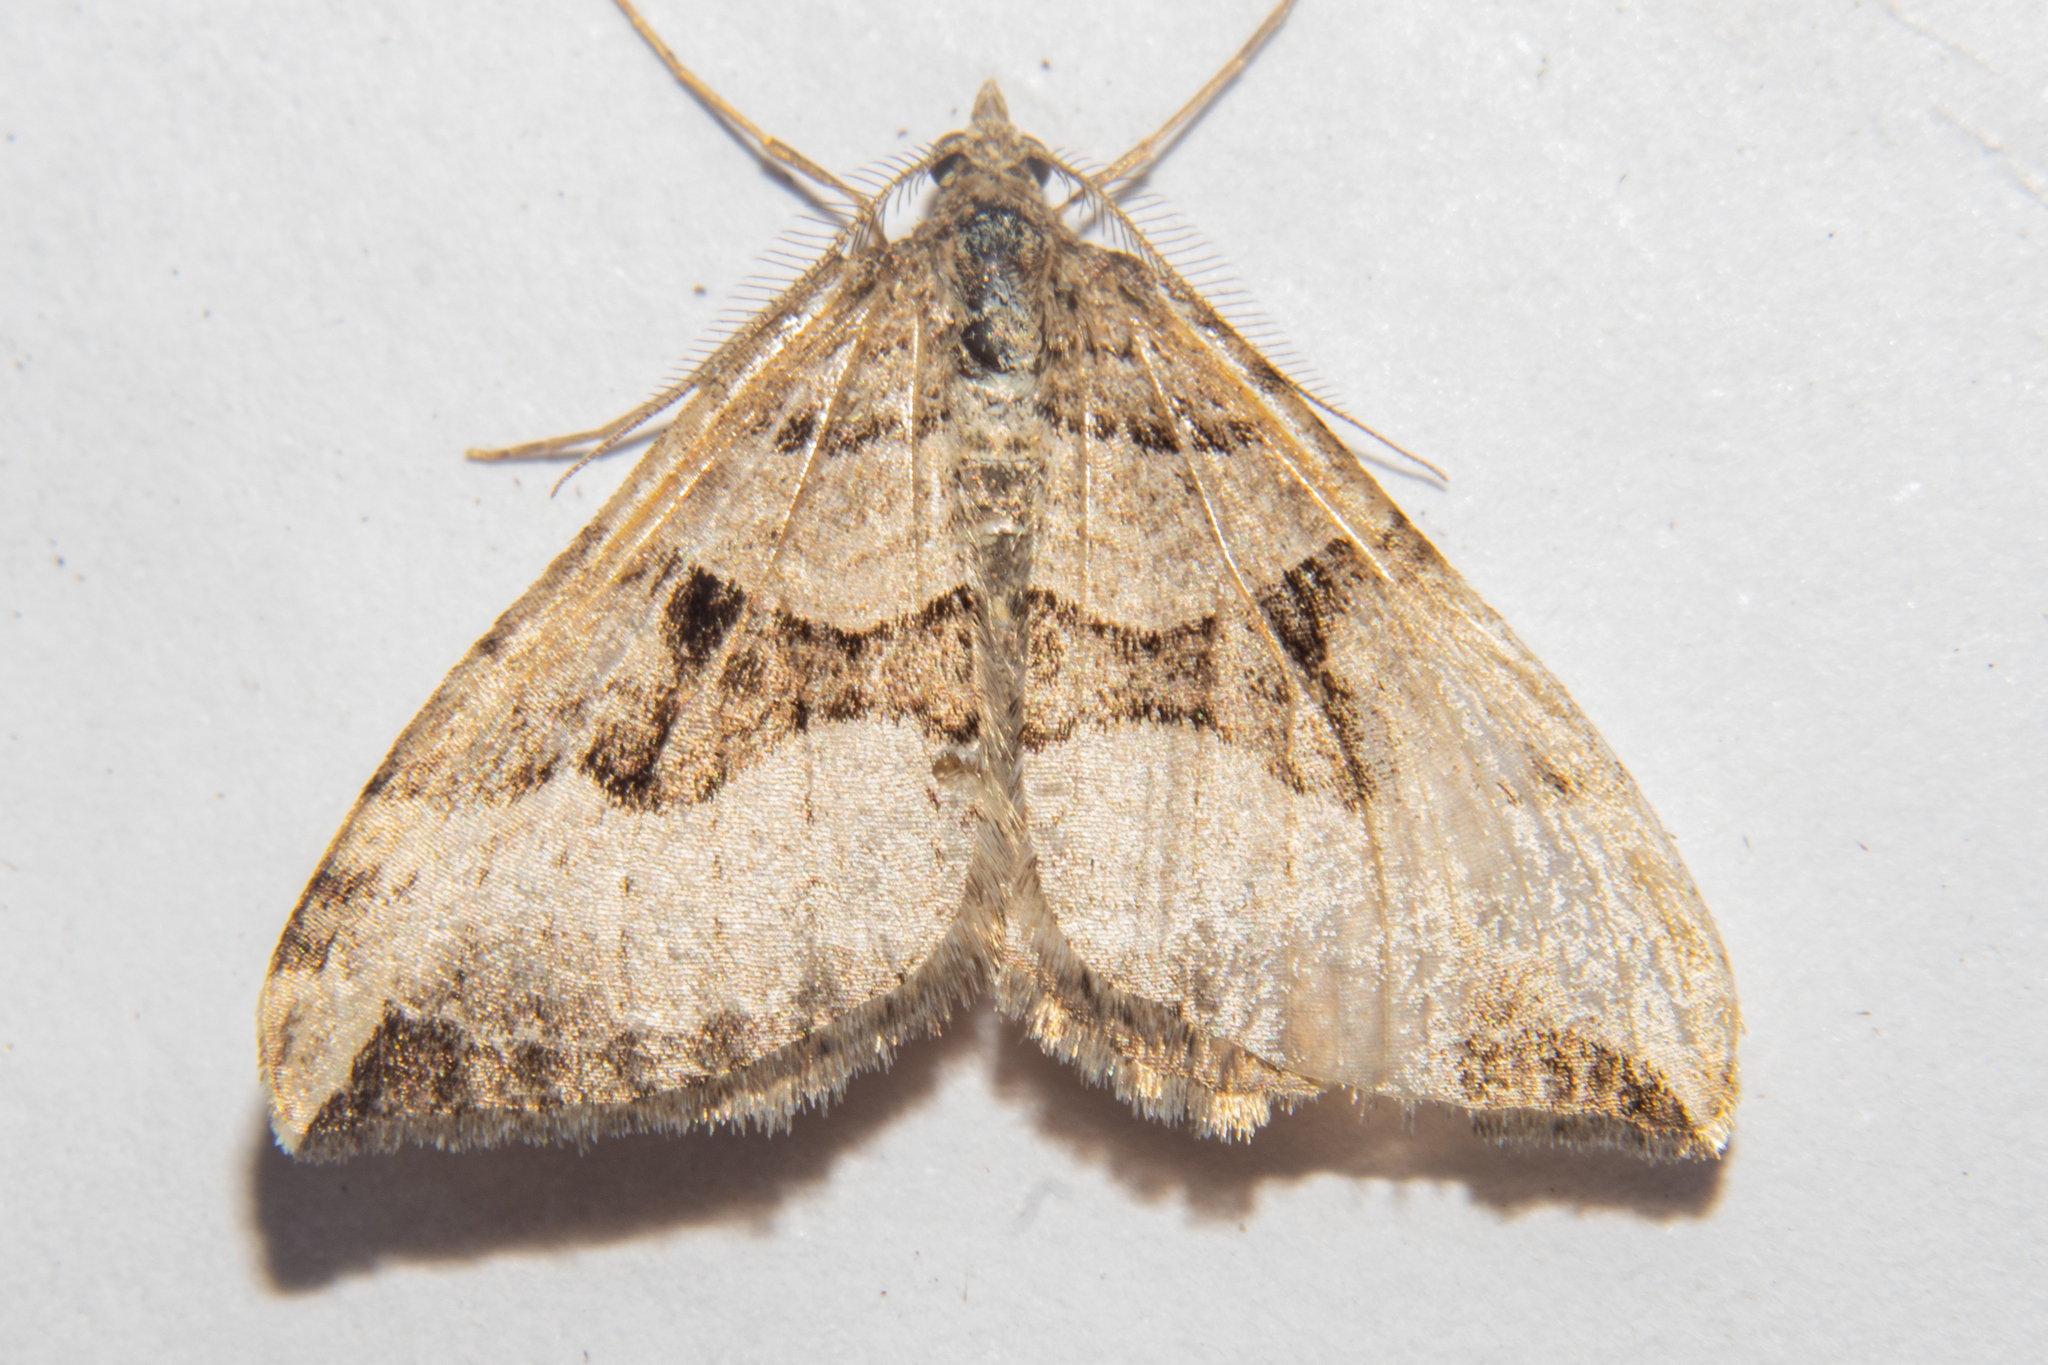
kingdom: Animalia
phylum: Arthropoda
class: Insecta
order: Lepidoptera
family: Geometridae
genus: Xanthorhoe
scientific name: Xanthorhoe semifissata
